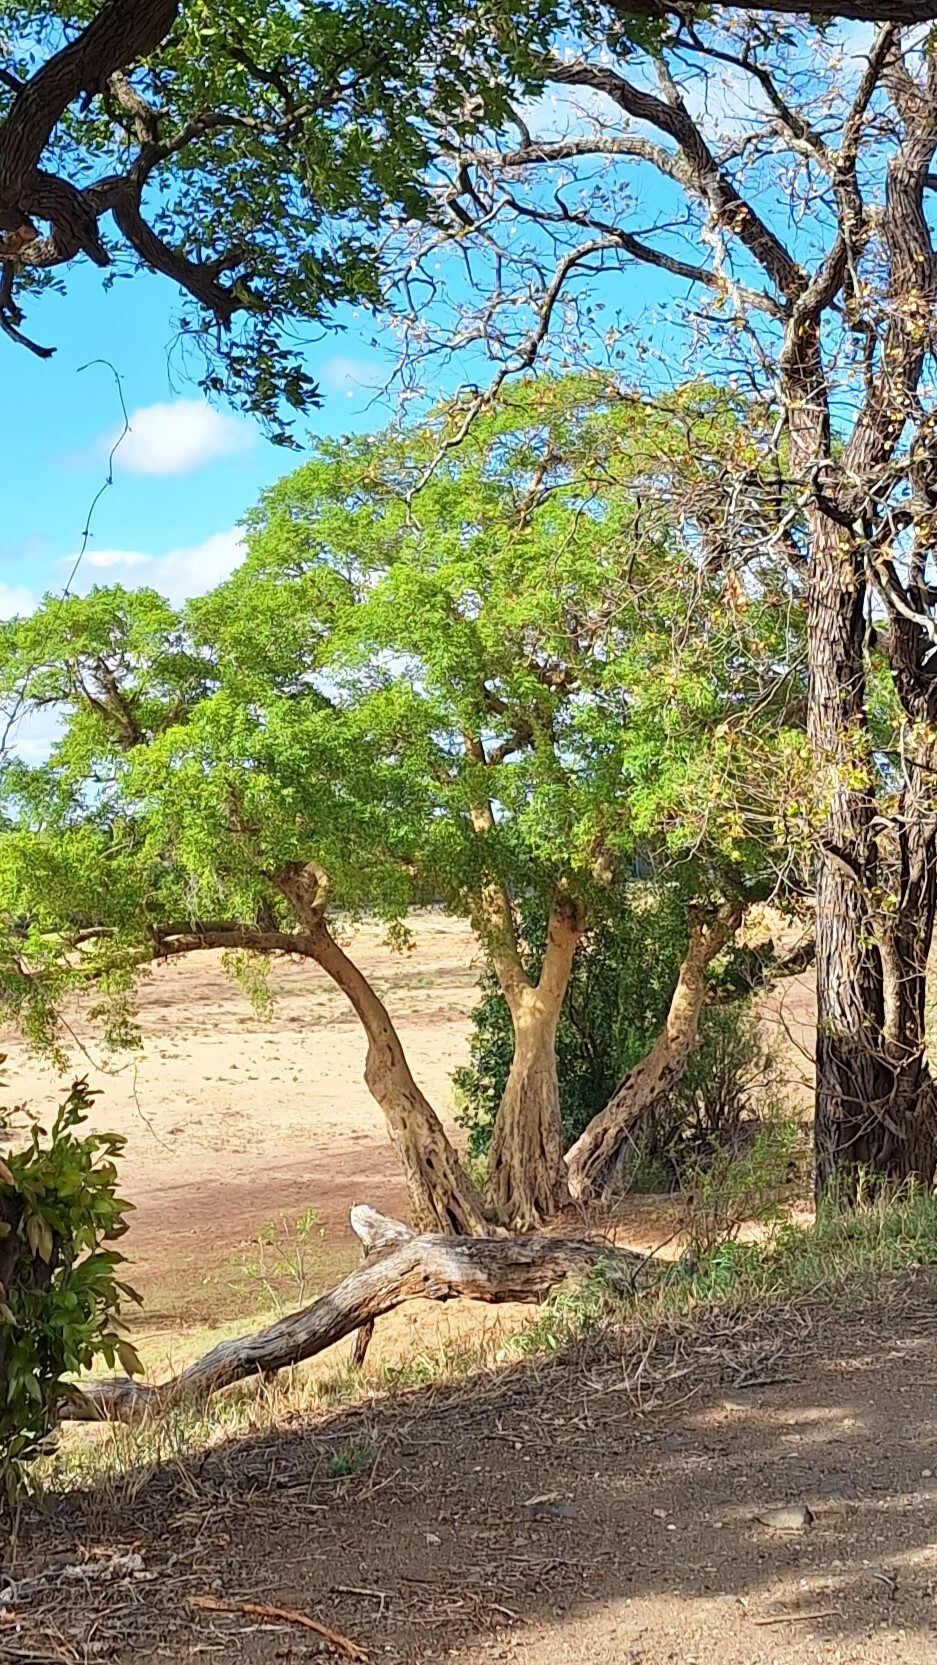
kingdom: Plantae
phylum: Tracheophyta
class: Magnoliopsida
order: Rosales
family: Moraceae
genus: Ficus
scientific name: Ficus sycomorus
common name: Sycomore
